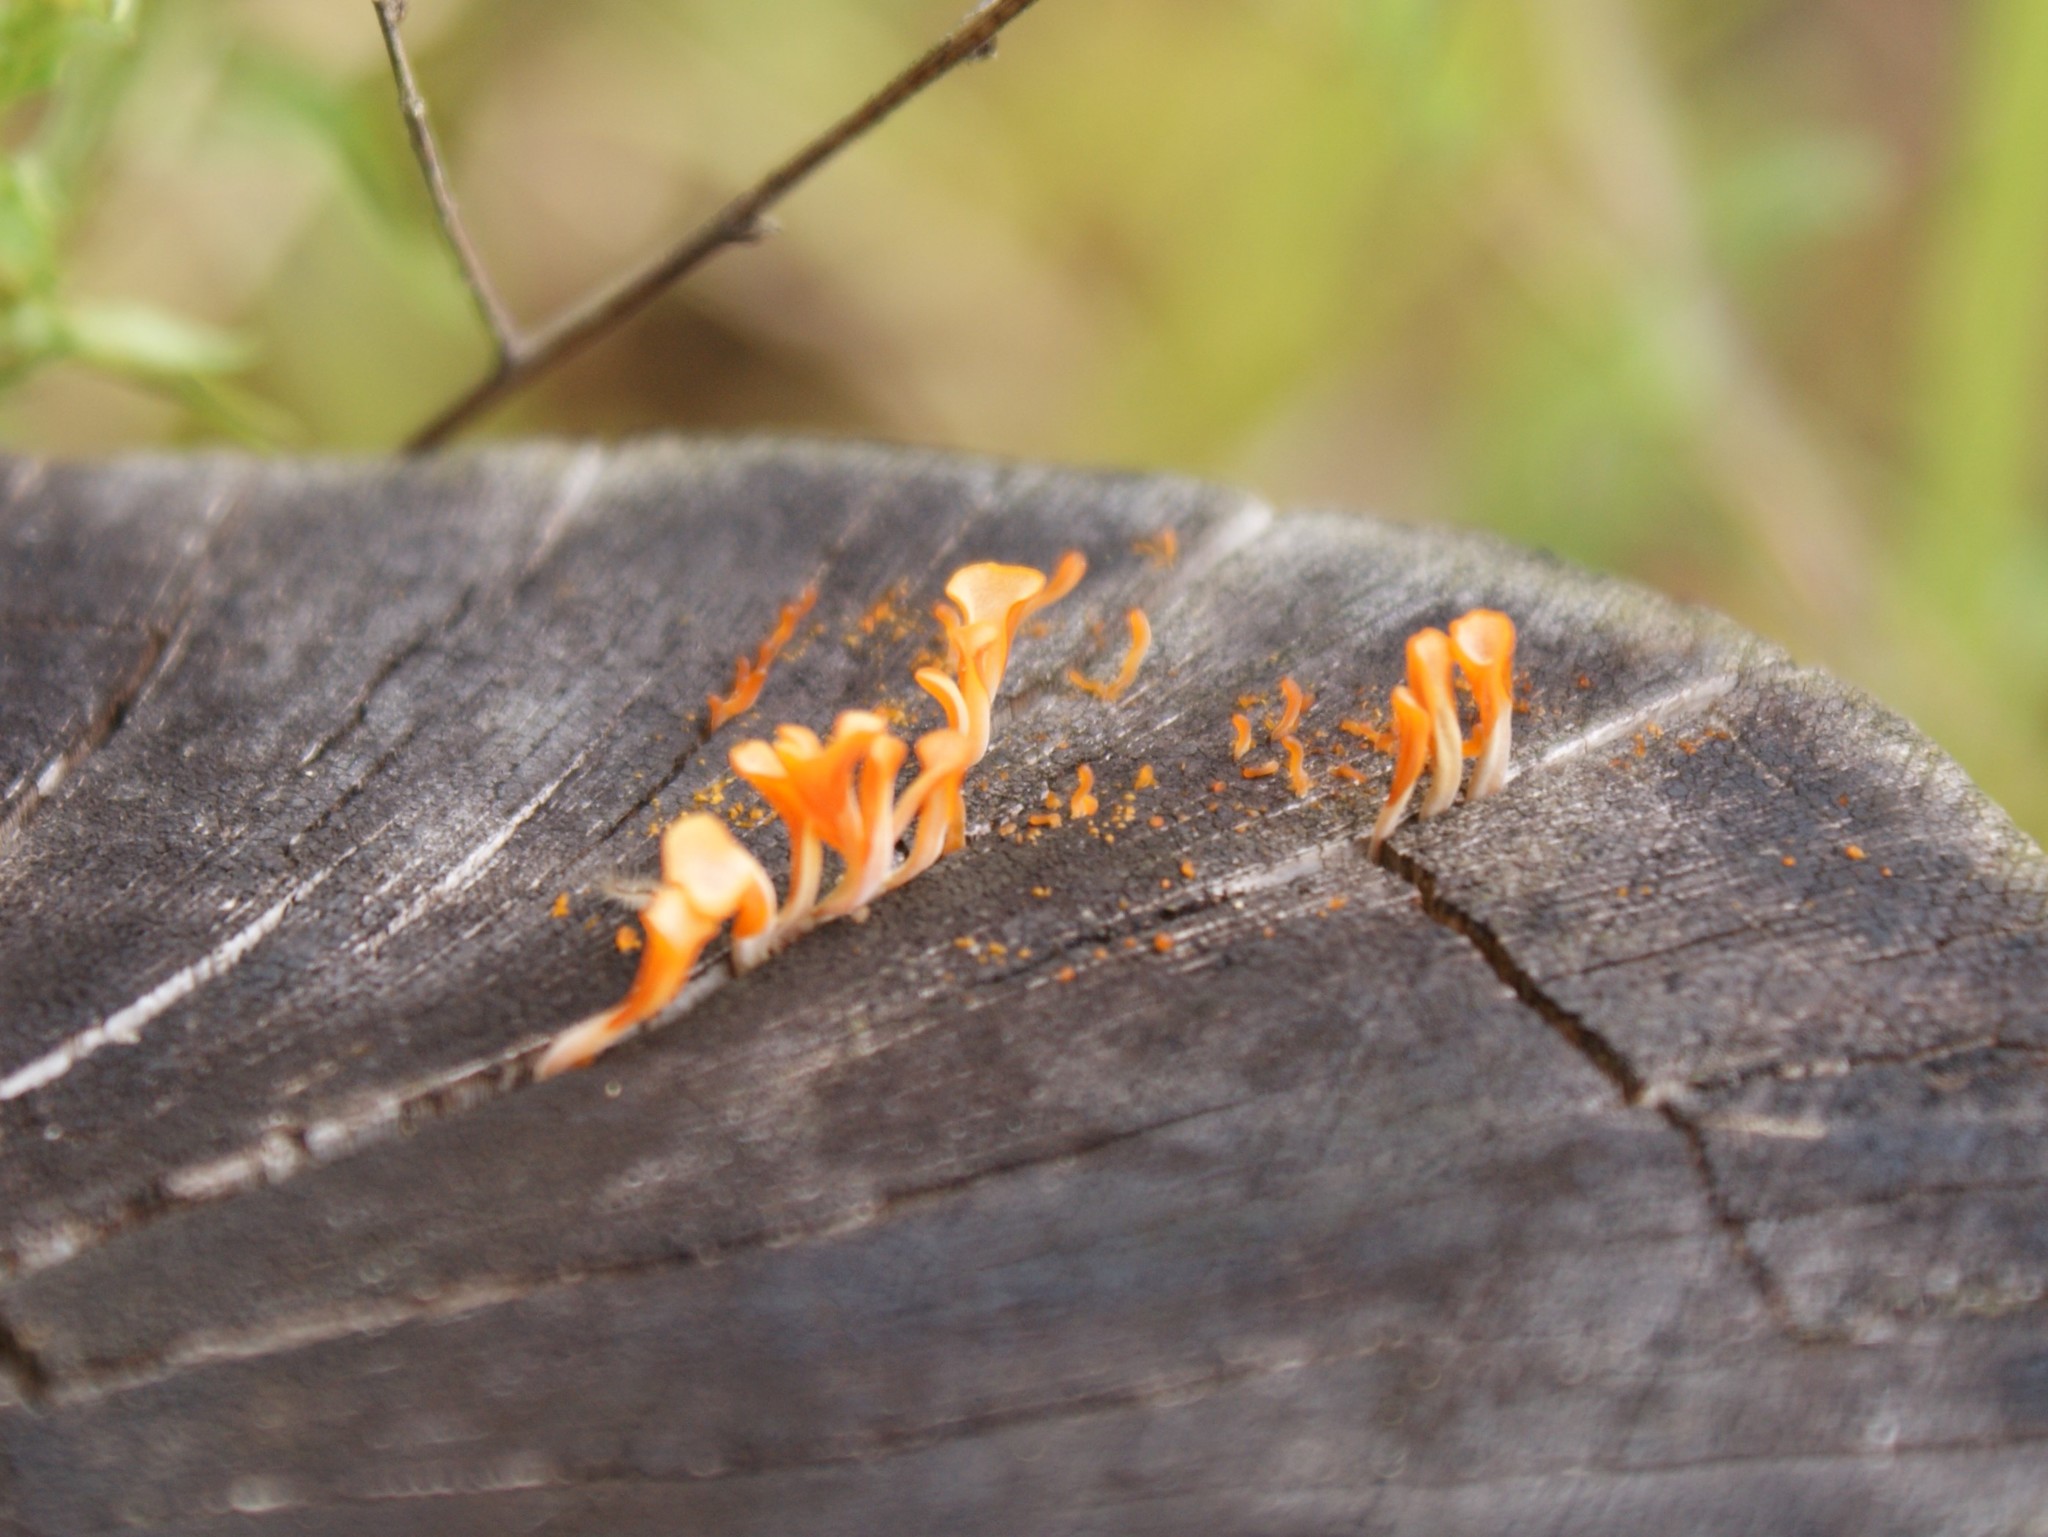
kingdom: Fungi
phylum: Basidiomycota
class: Dacrymycetes
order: Dacrymycetales
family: Dacrymycetaceae
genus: Dacrymyces
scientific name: Dacrymyces spathularius
